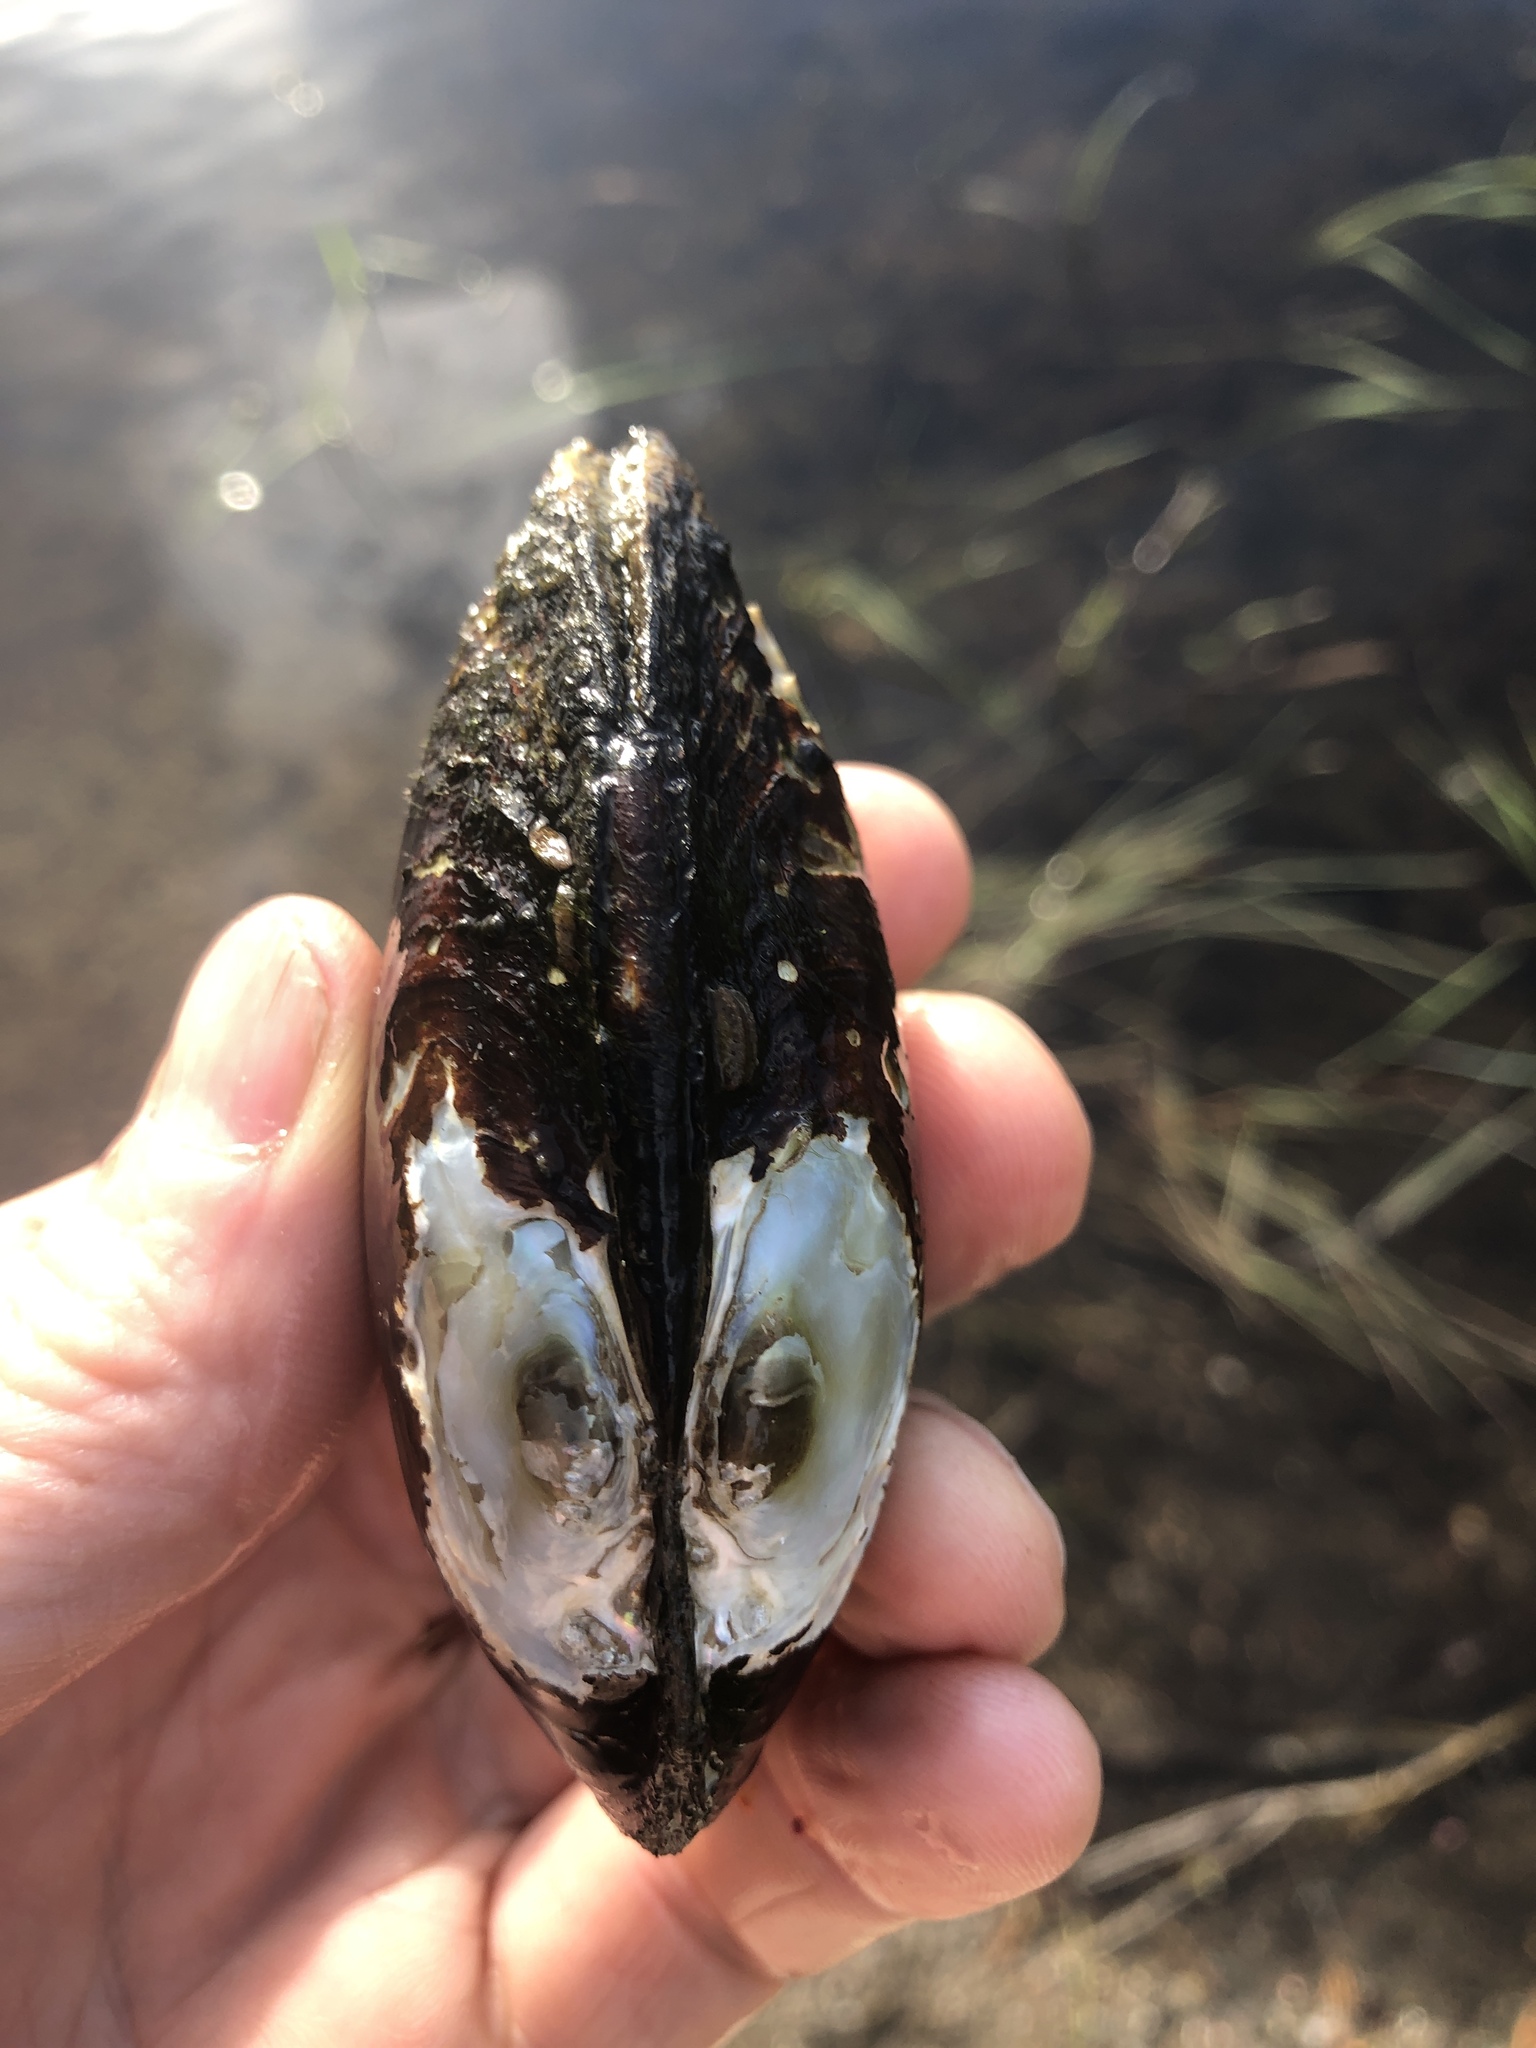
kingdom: Animalia
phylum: Mollusca
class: Bivalvia
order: Unionida
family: Unionidae
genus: Lampsilis
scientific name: Lampsilis siliquoidea
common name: Fatmucket
